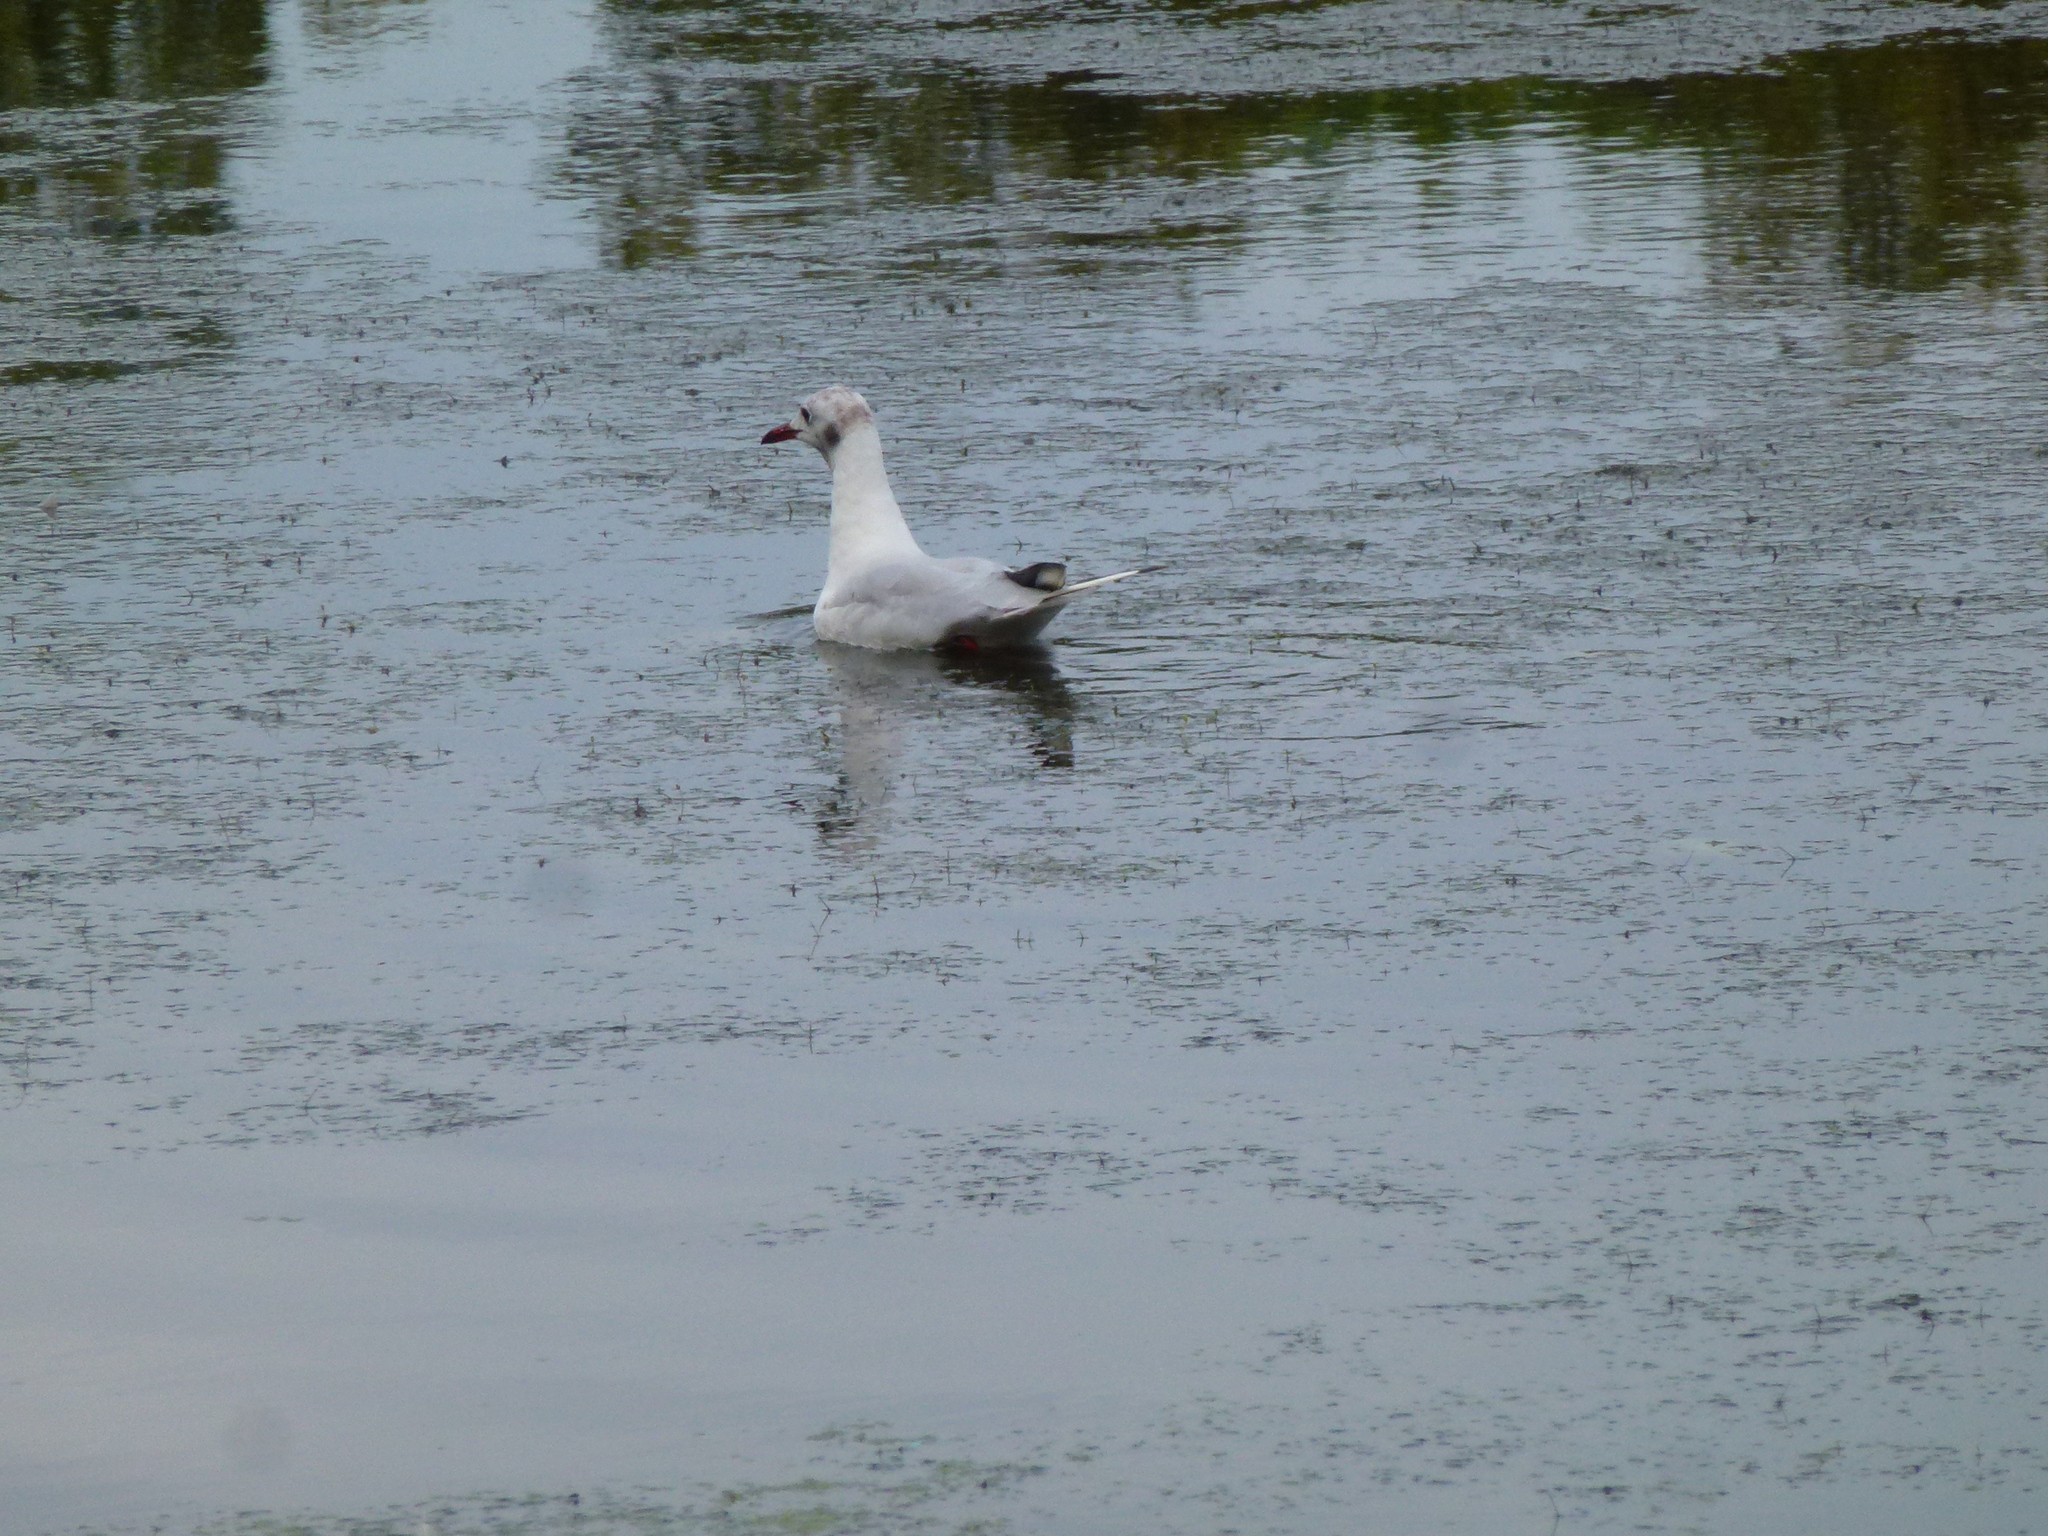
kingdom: Animalia
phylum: Chordata
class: Aves
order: Charadriiformes
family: Laridae
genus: Chroicocephalus
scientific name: Chroicocephalus ridibundus
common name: Black-headed gull
